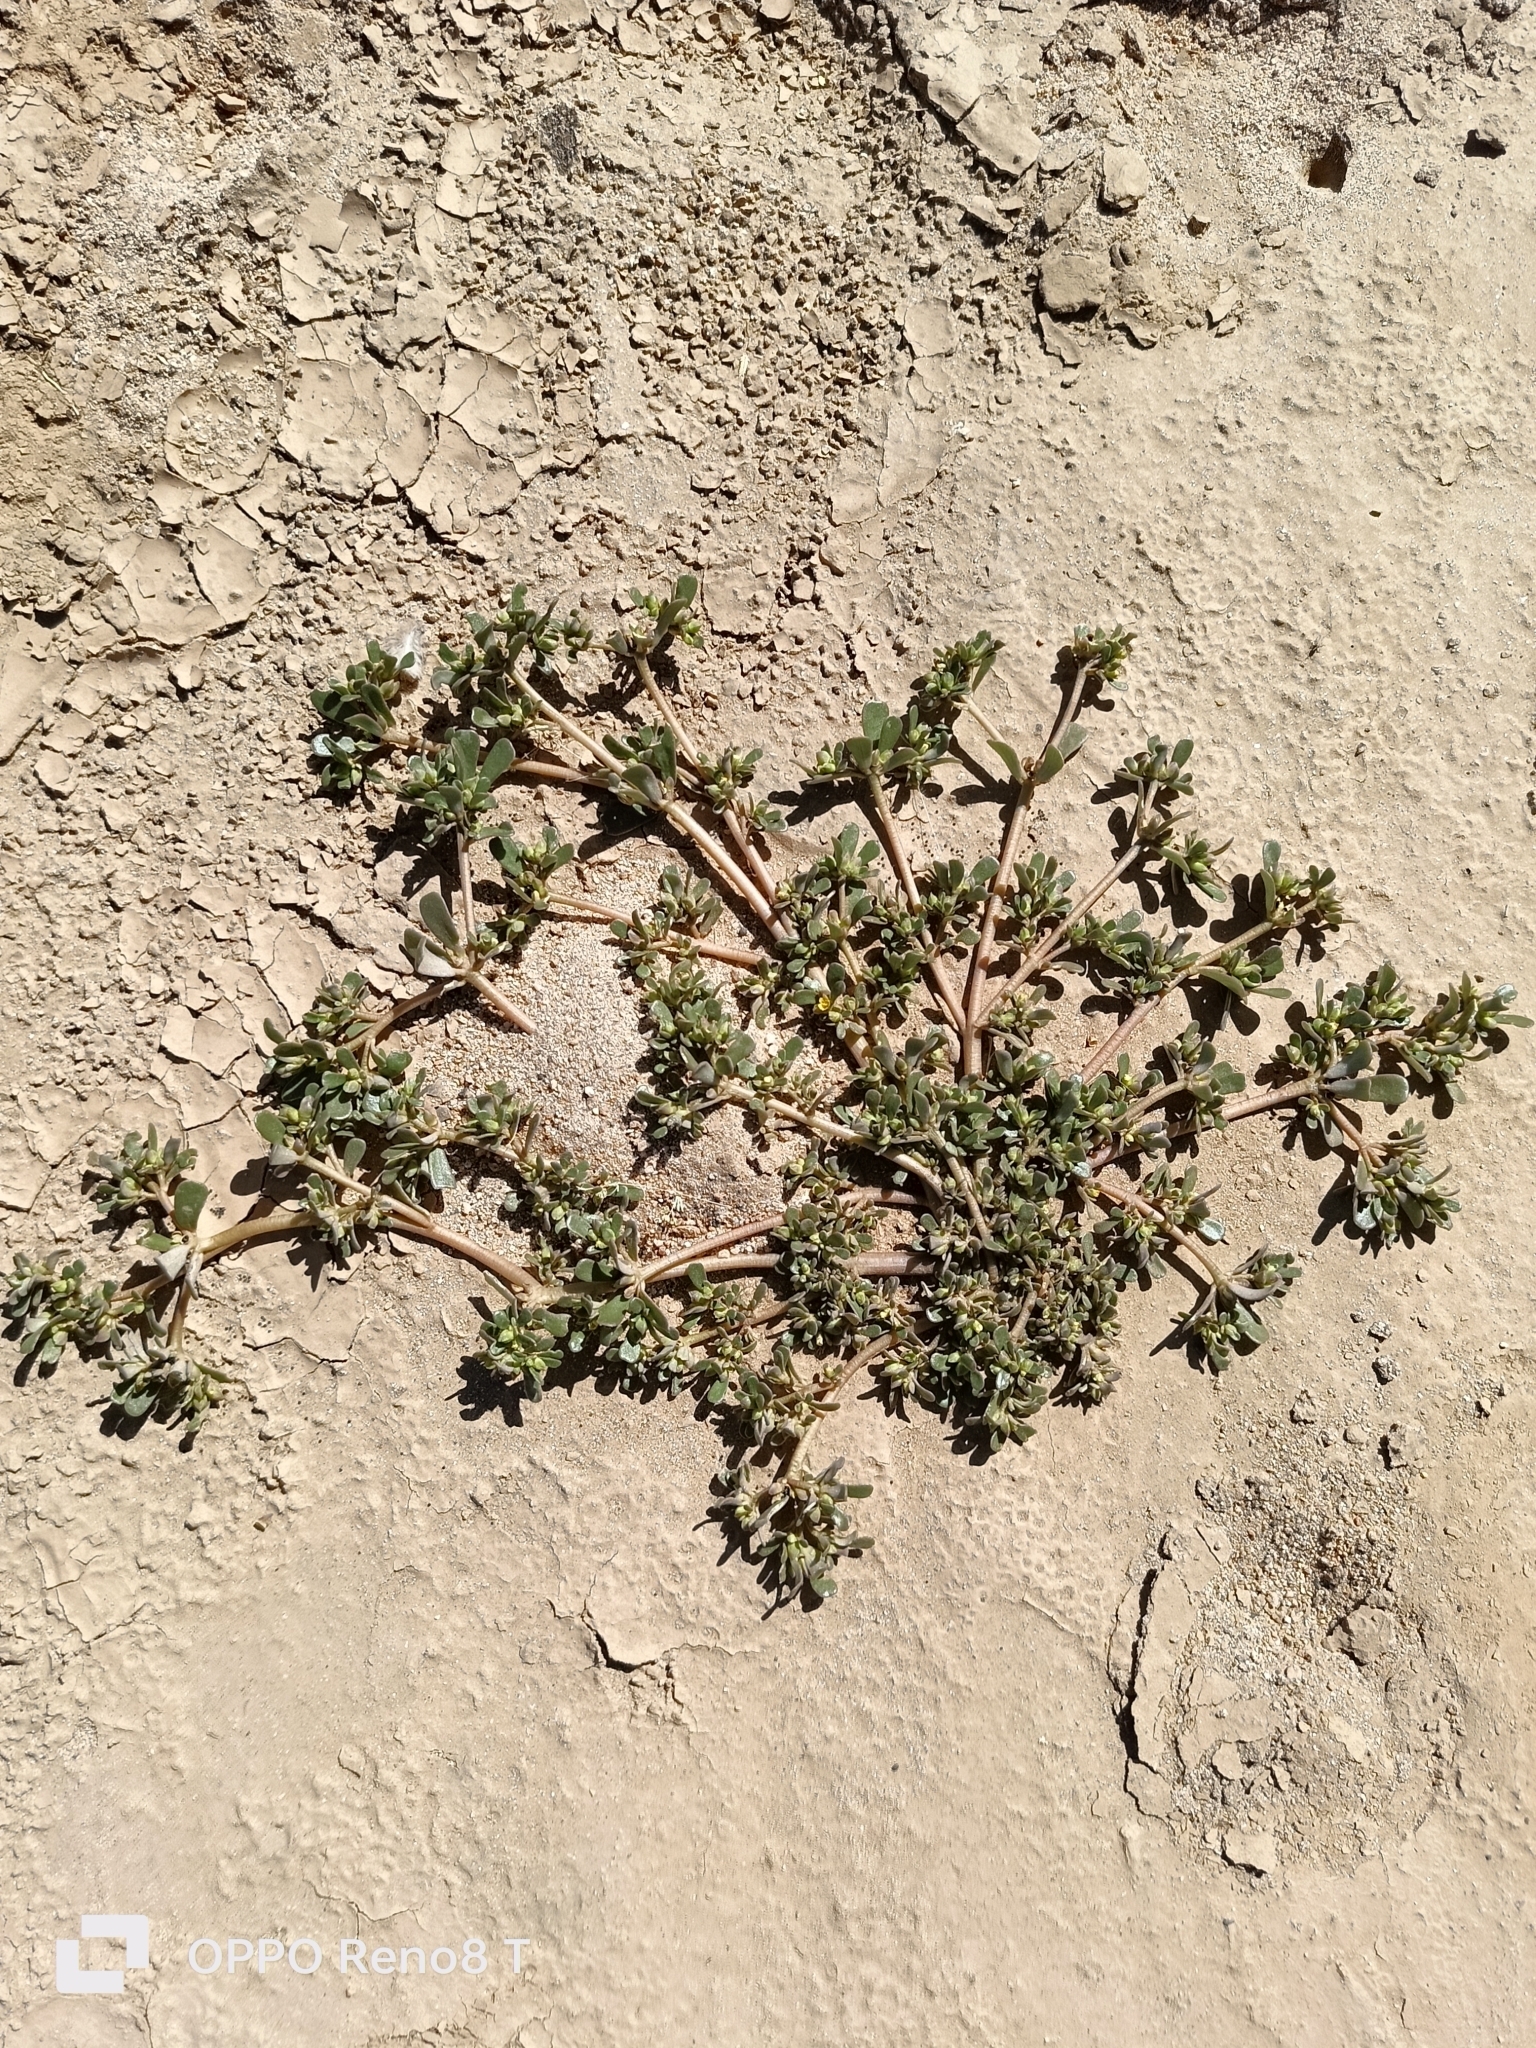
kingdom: Plantae
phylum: Tracheophyta
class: Magnoliopsida
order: Caryophyllales
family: Portulacaceae
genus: Portulaca
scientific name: Portulaca oleracea
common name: Common purslane
